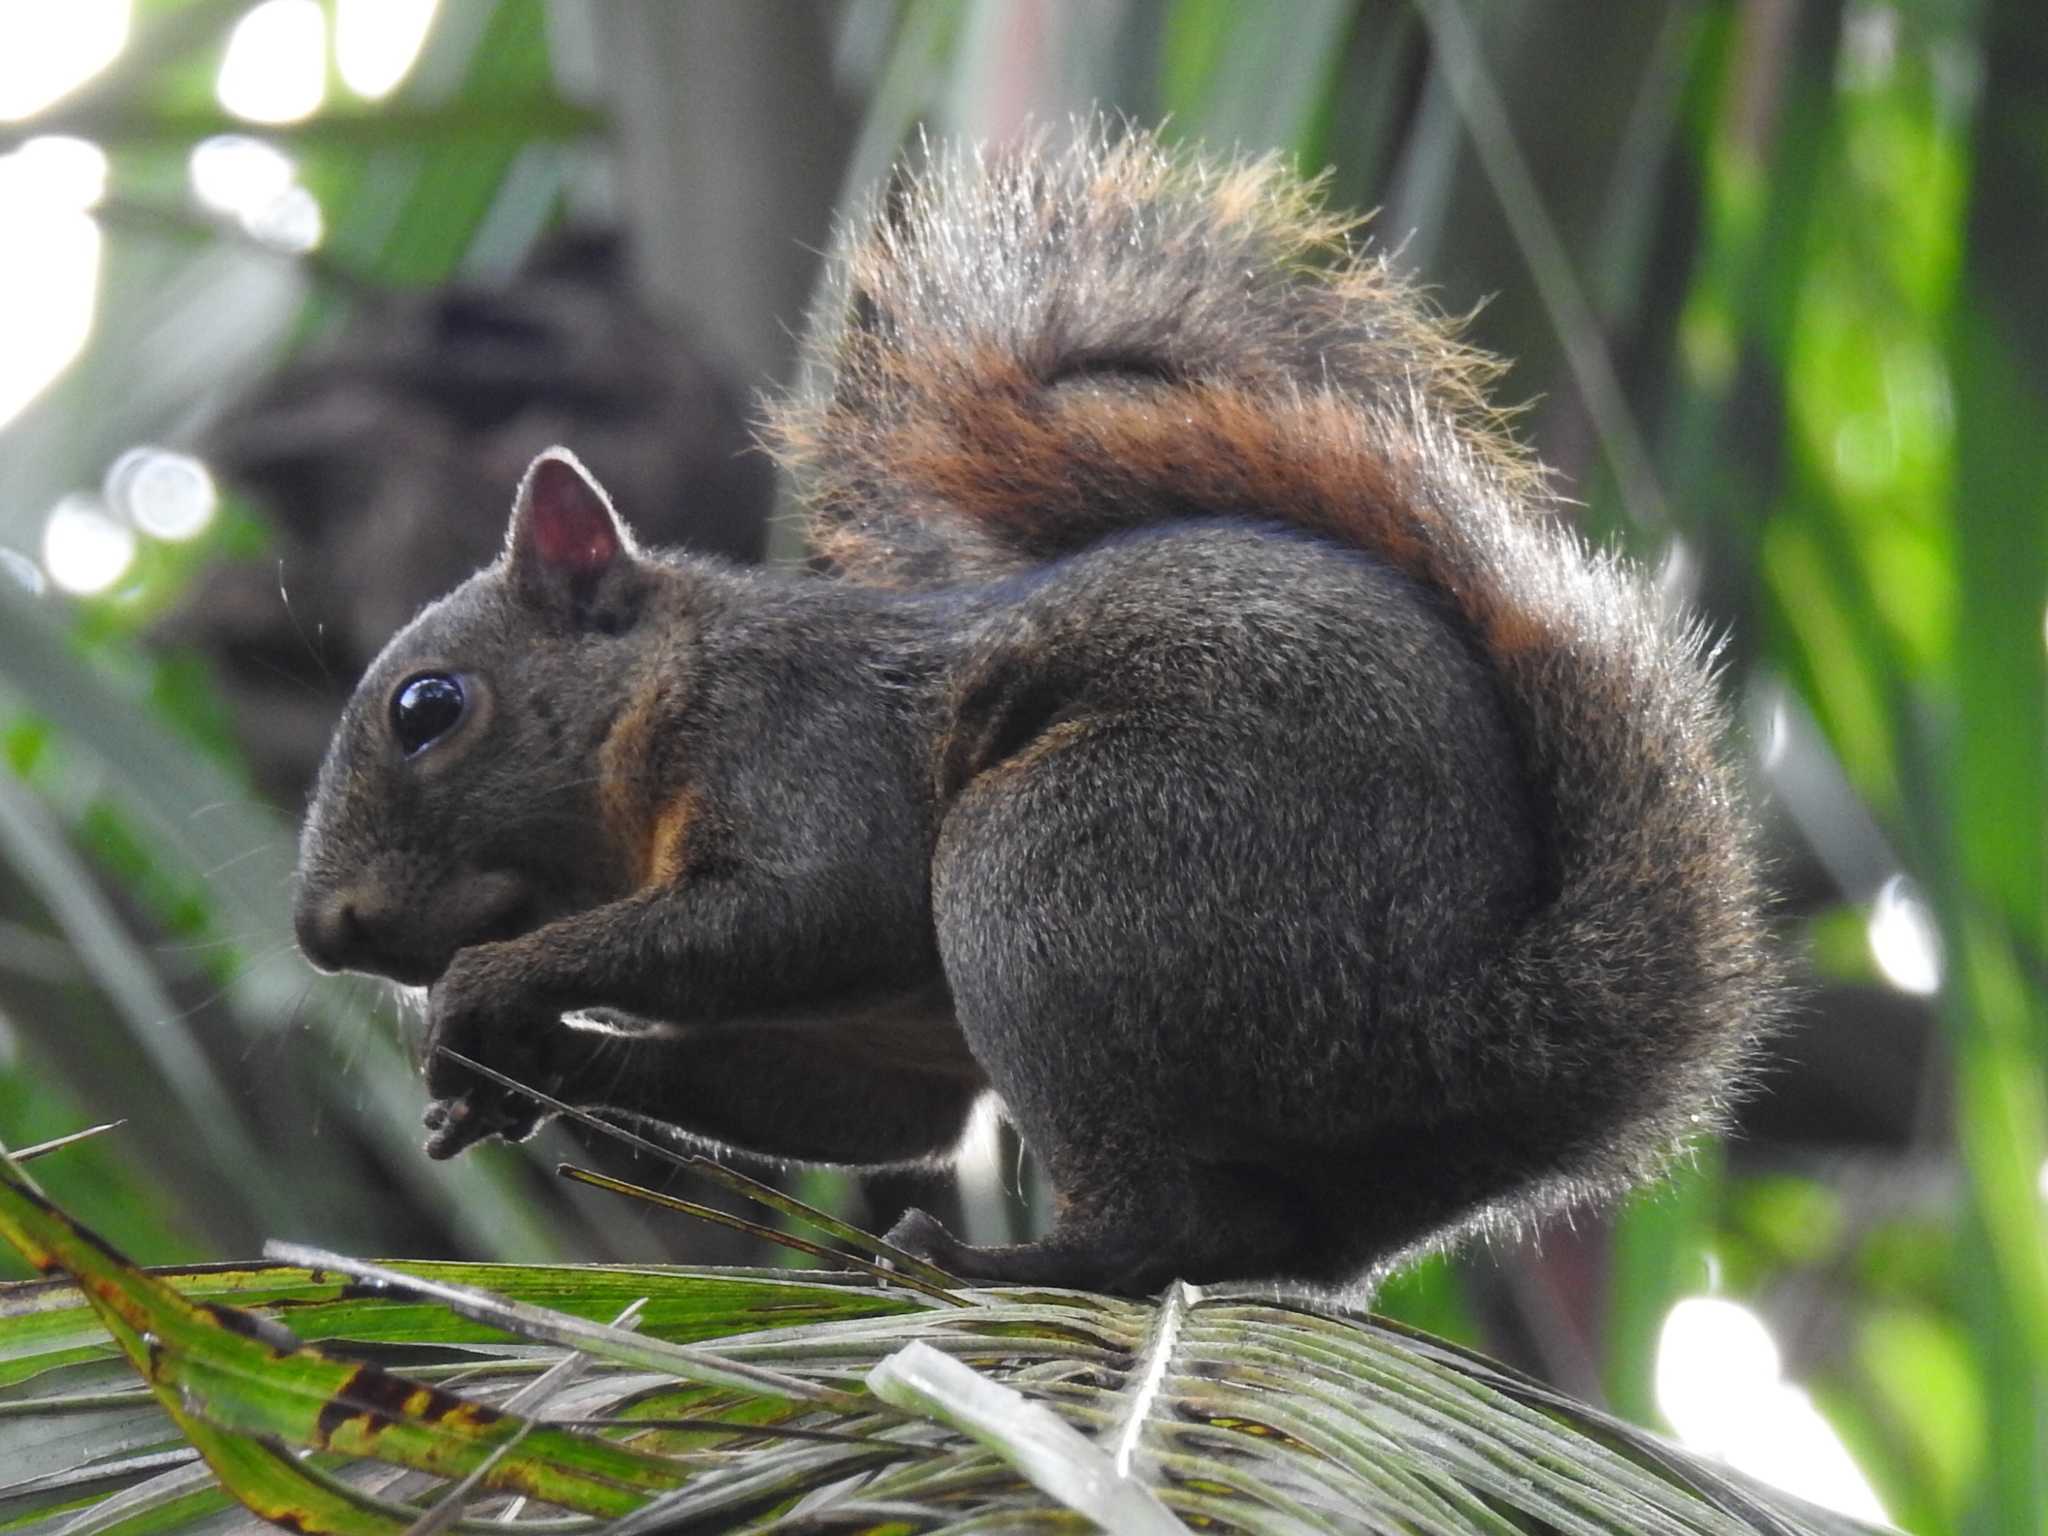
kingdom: Animalia
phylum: Chordata
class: Mammalia
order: Rodentia
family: Sciuridae
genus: Sciurus
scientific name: Sciurus granatensis
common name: Red-tailed squirrel
